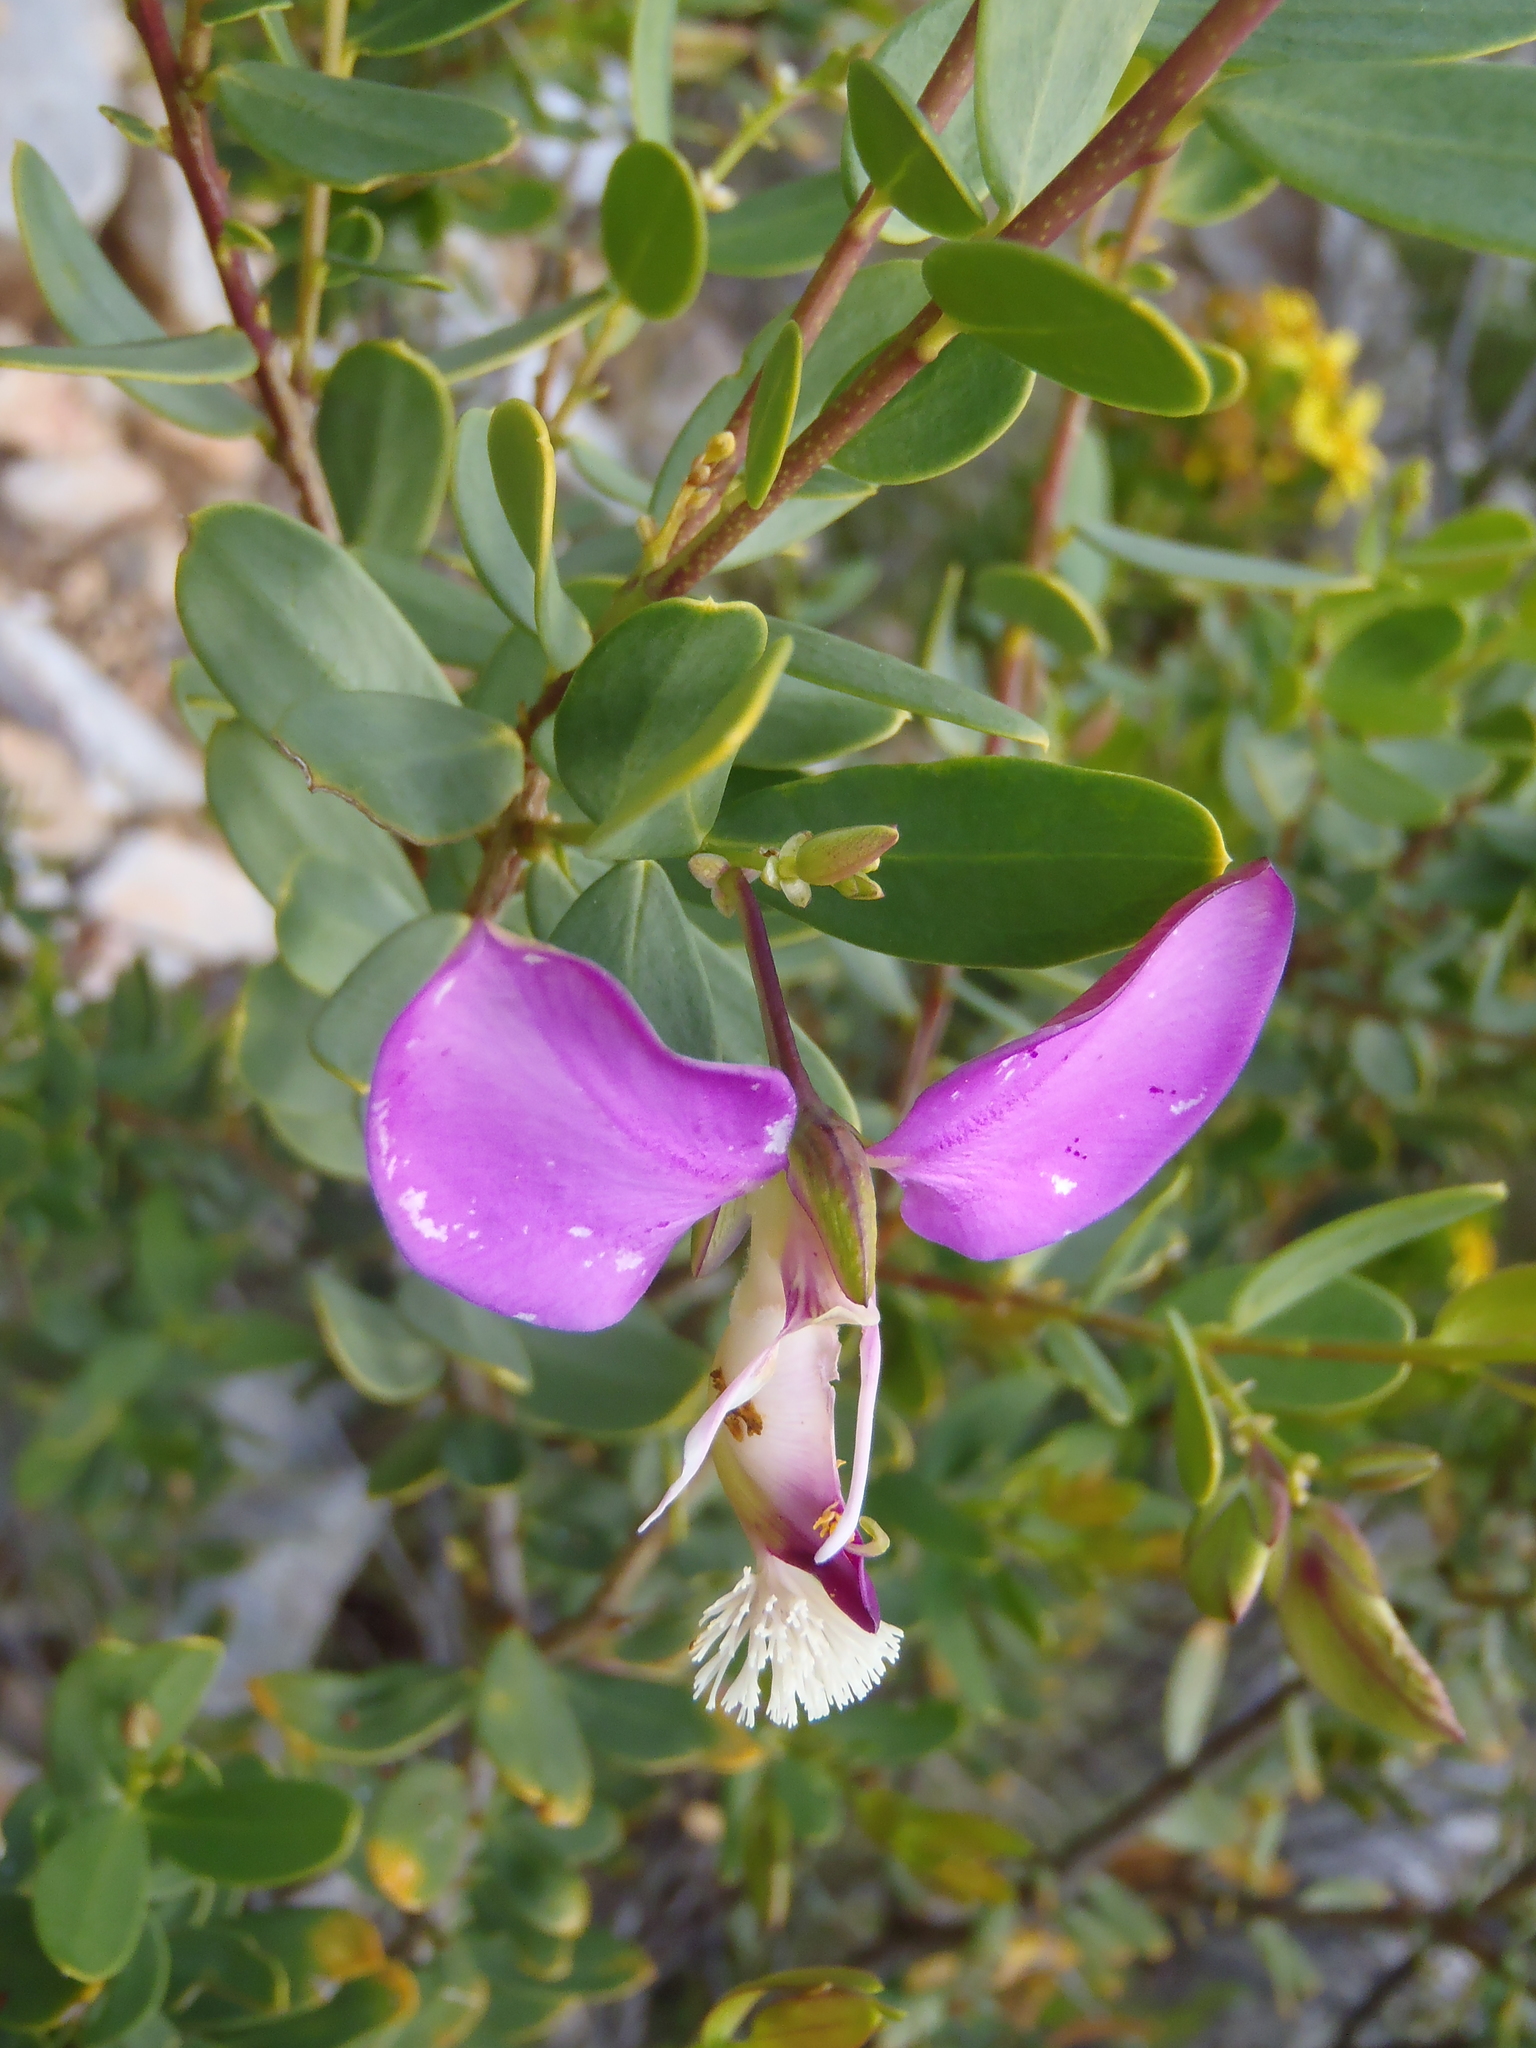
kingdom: Plantae
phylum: Tracheophyta
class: Magnoliopsida
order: Fabales
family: Polygalaceae
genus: Polygala
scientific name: Polygala myrtifolia
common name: Myrtle-leaf milkwort
